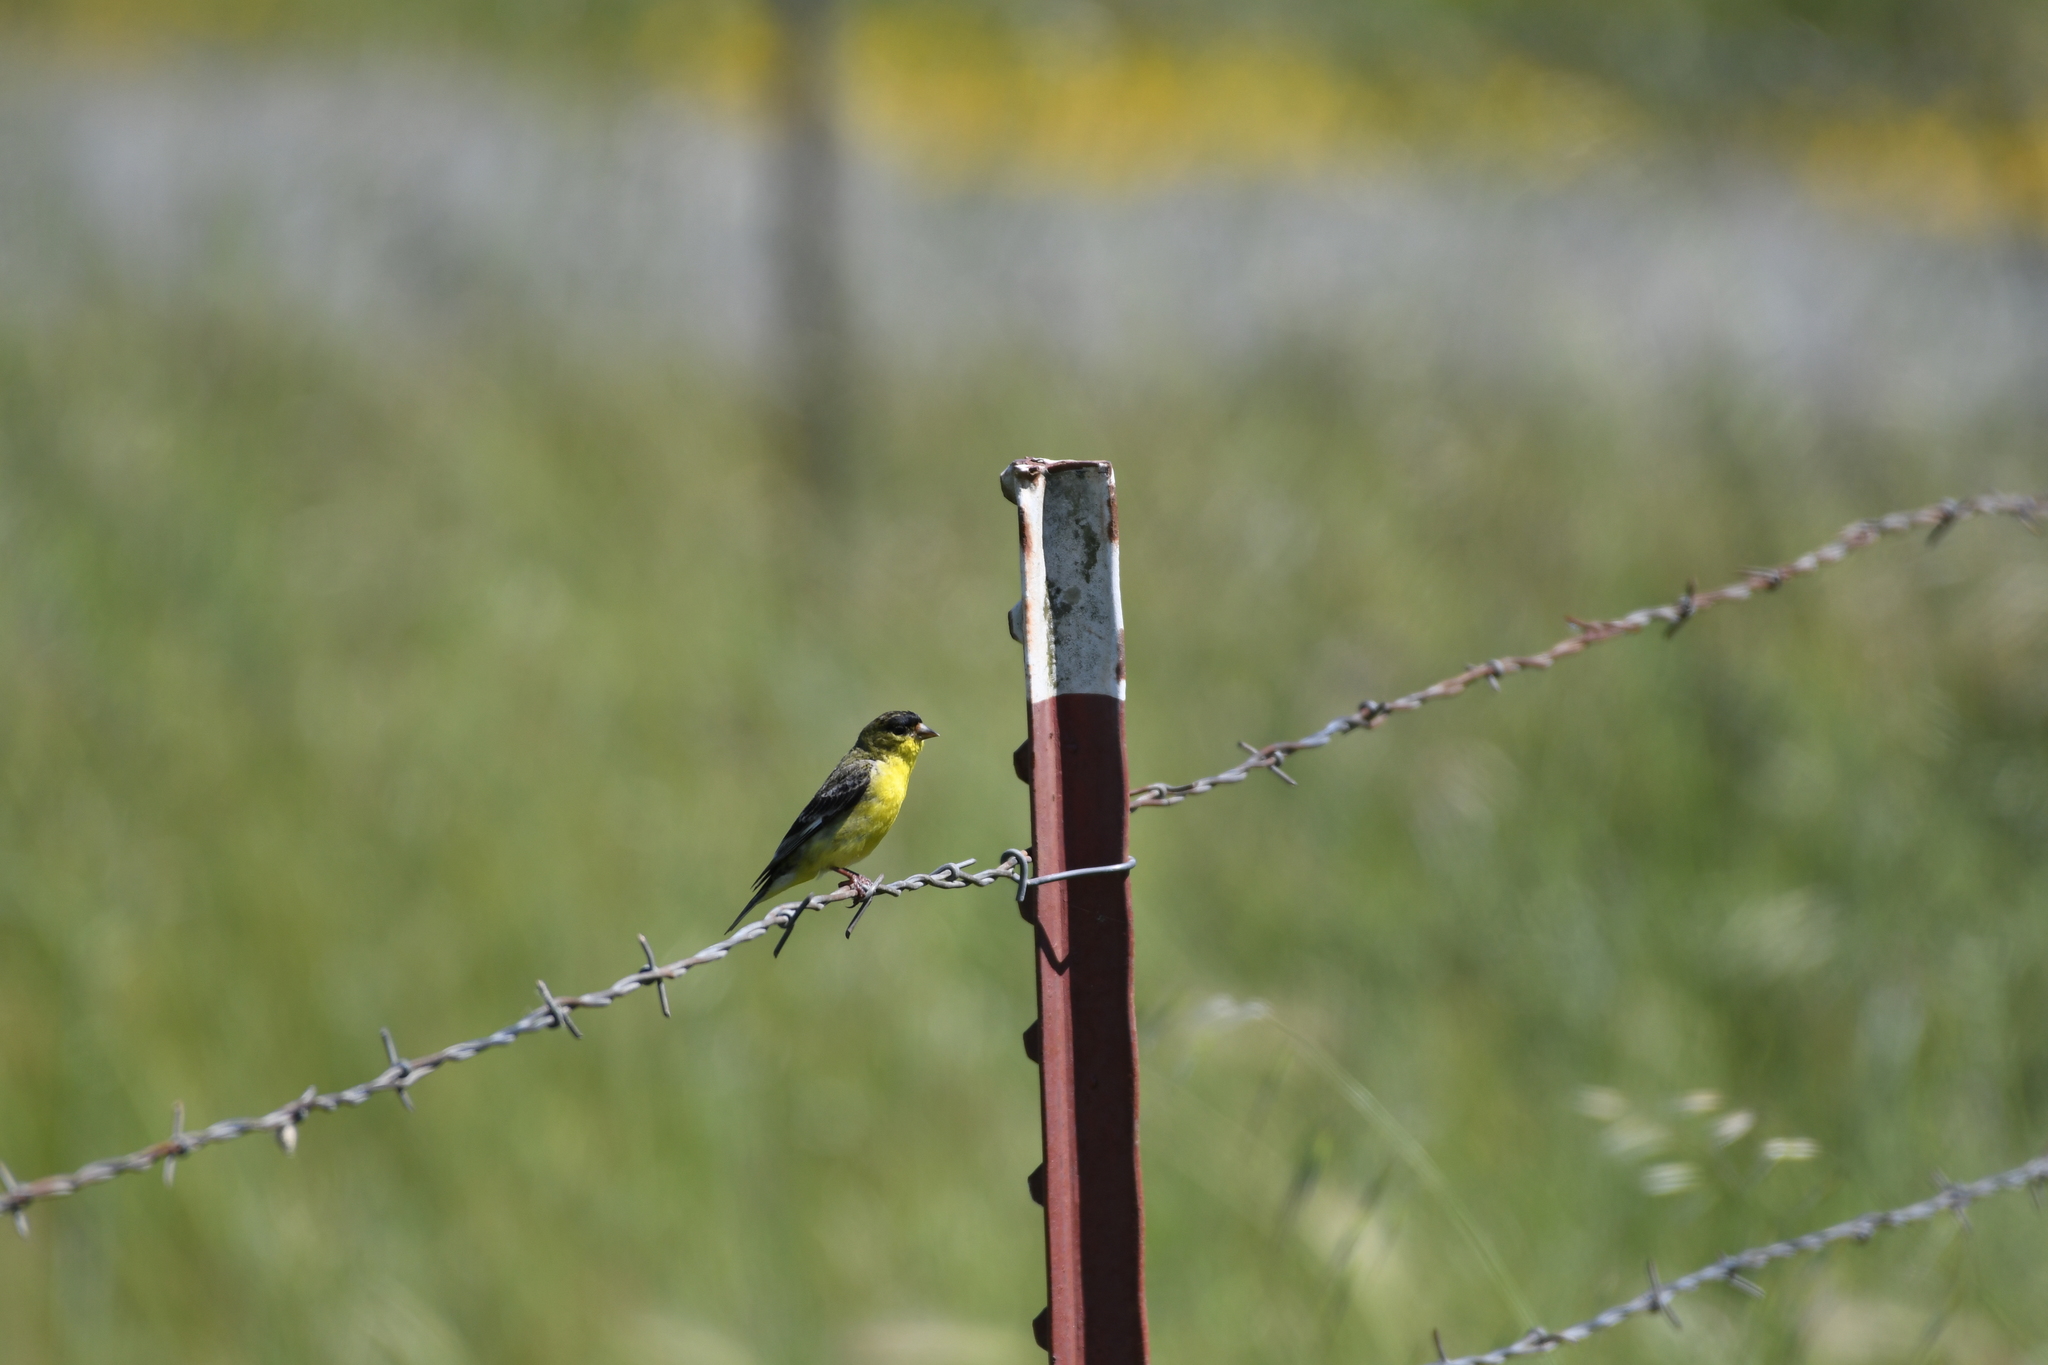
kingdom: Animalia
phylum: Chordata
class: Aves
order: Passeriformes
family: Fringillidae
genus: Spinus
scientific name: Spinus psaltria
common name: Lesser goldfinch
